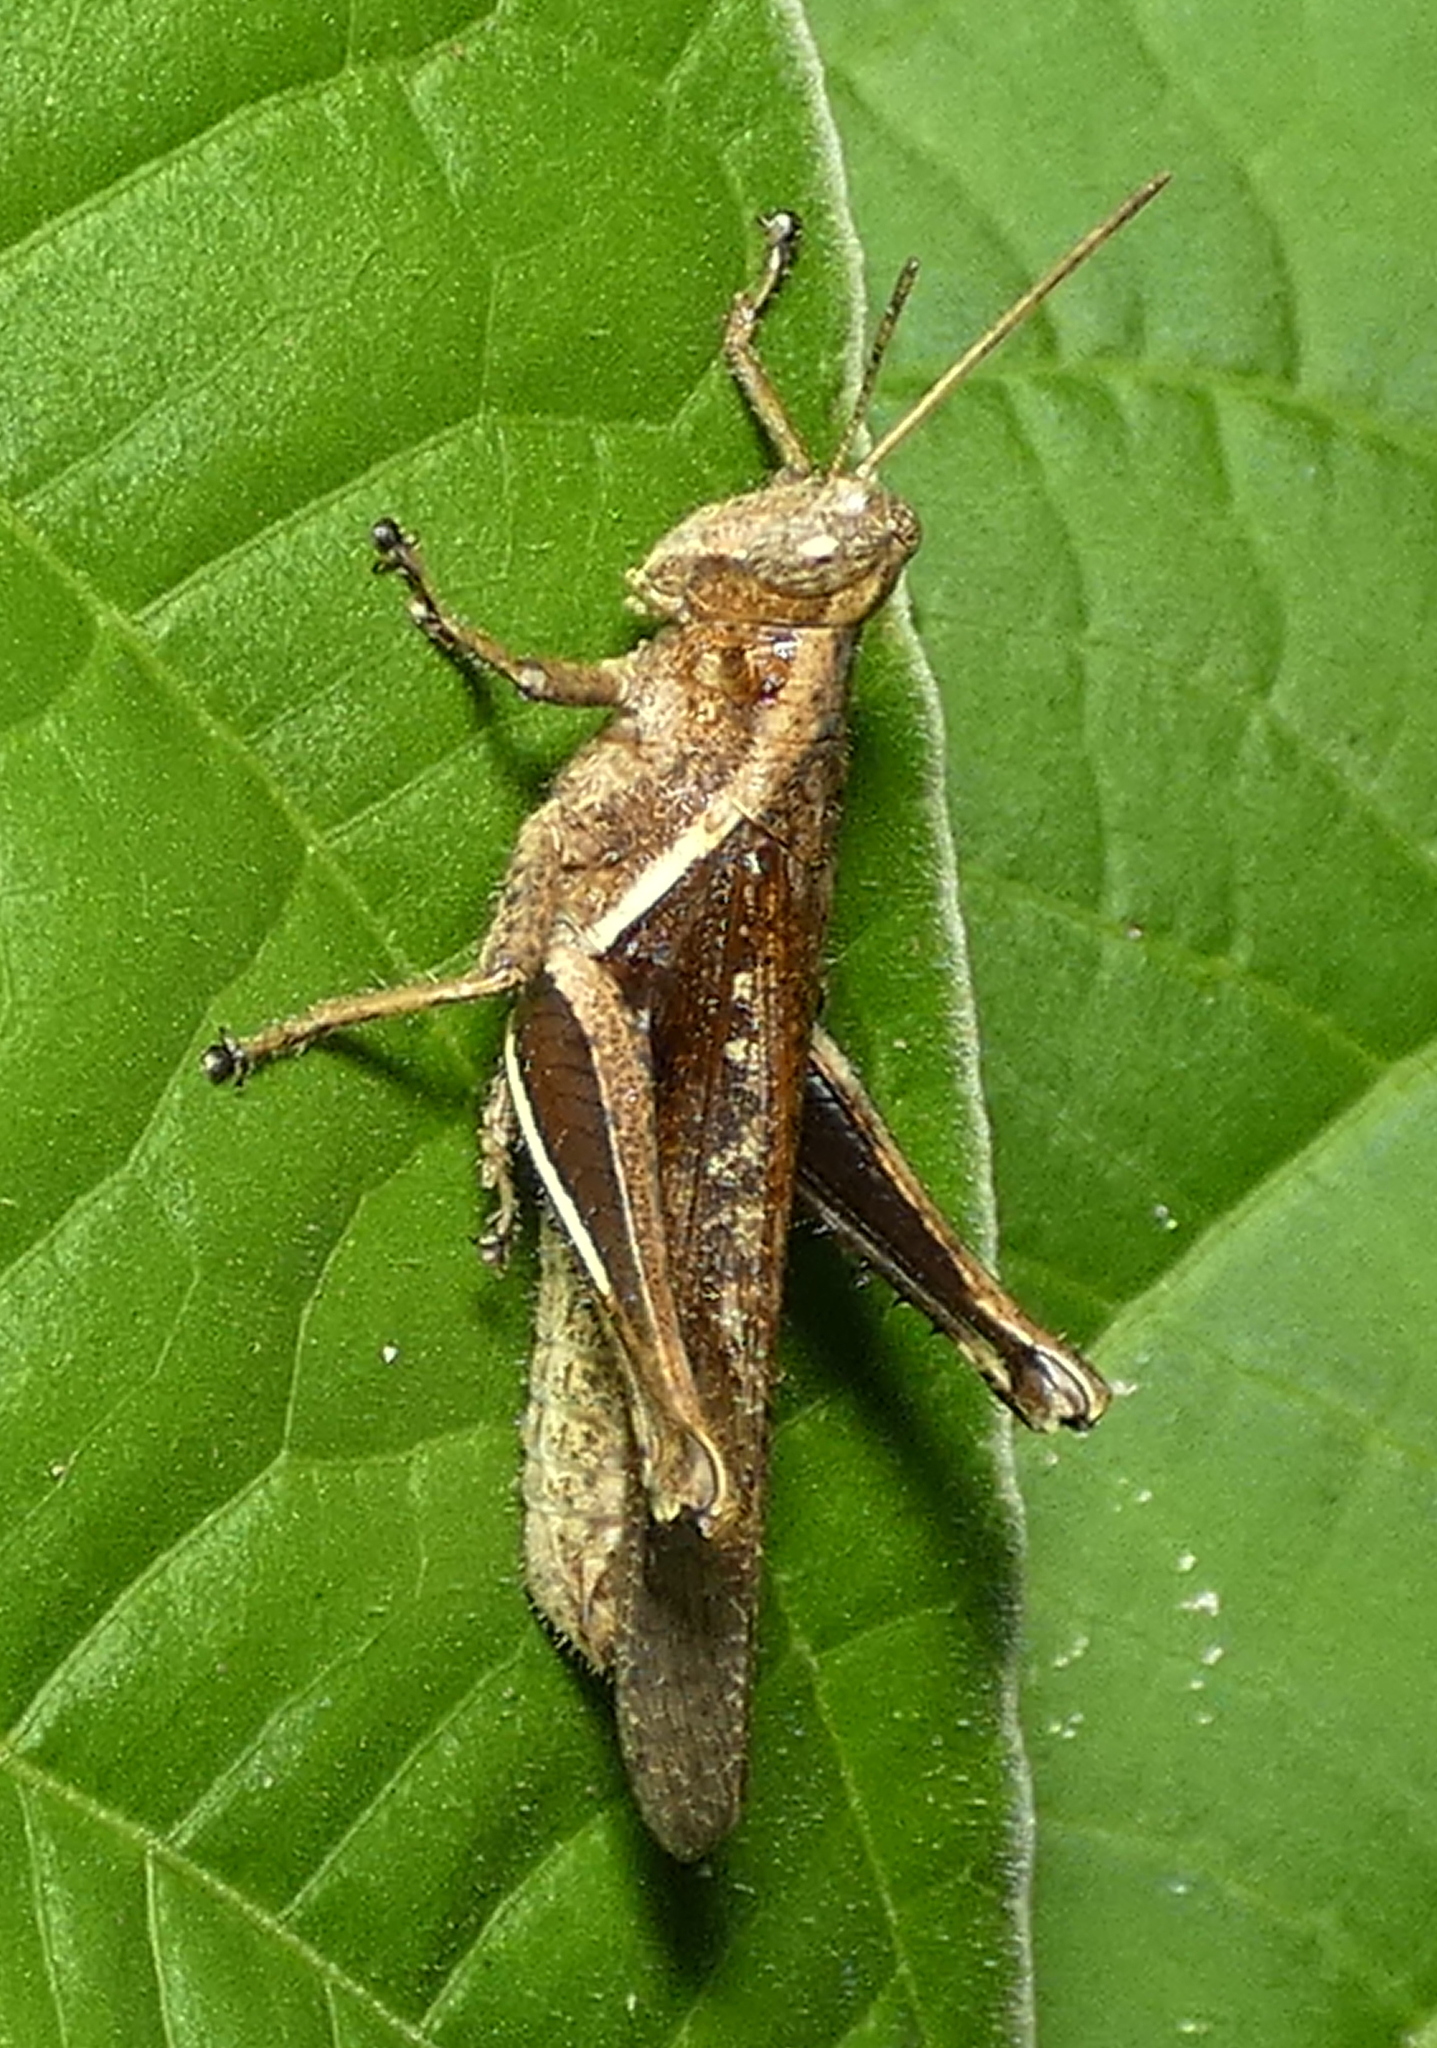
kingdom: Animalia
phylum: Arthropoda
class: Insecta
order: Orthoptera
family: Acrididae
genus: Abracris
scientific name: Abracris flavolineata
